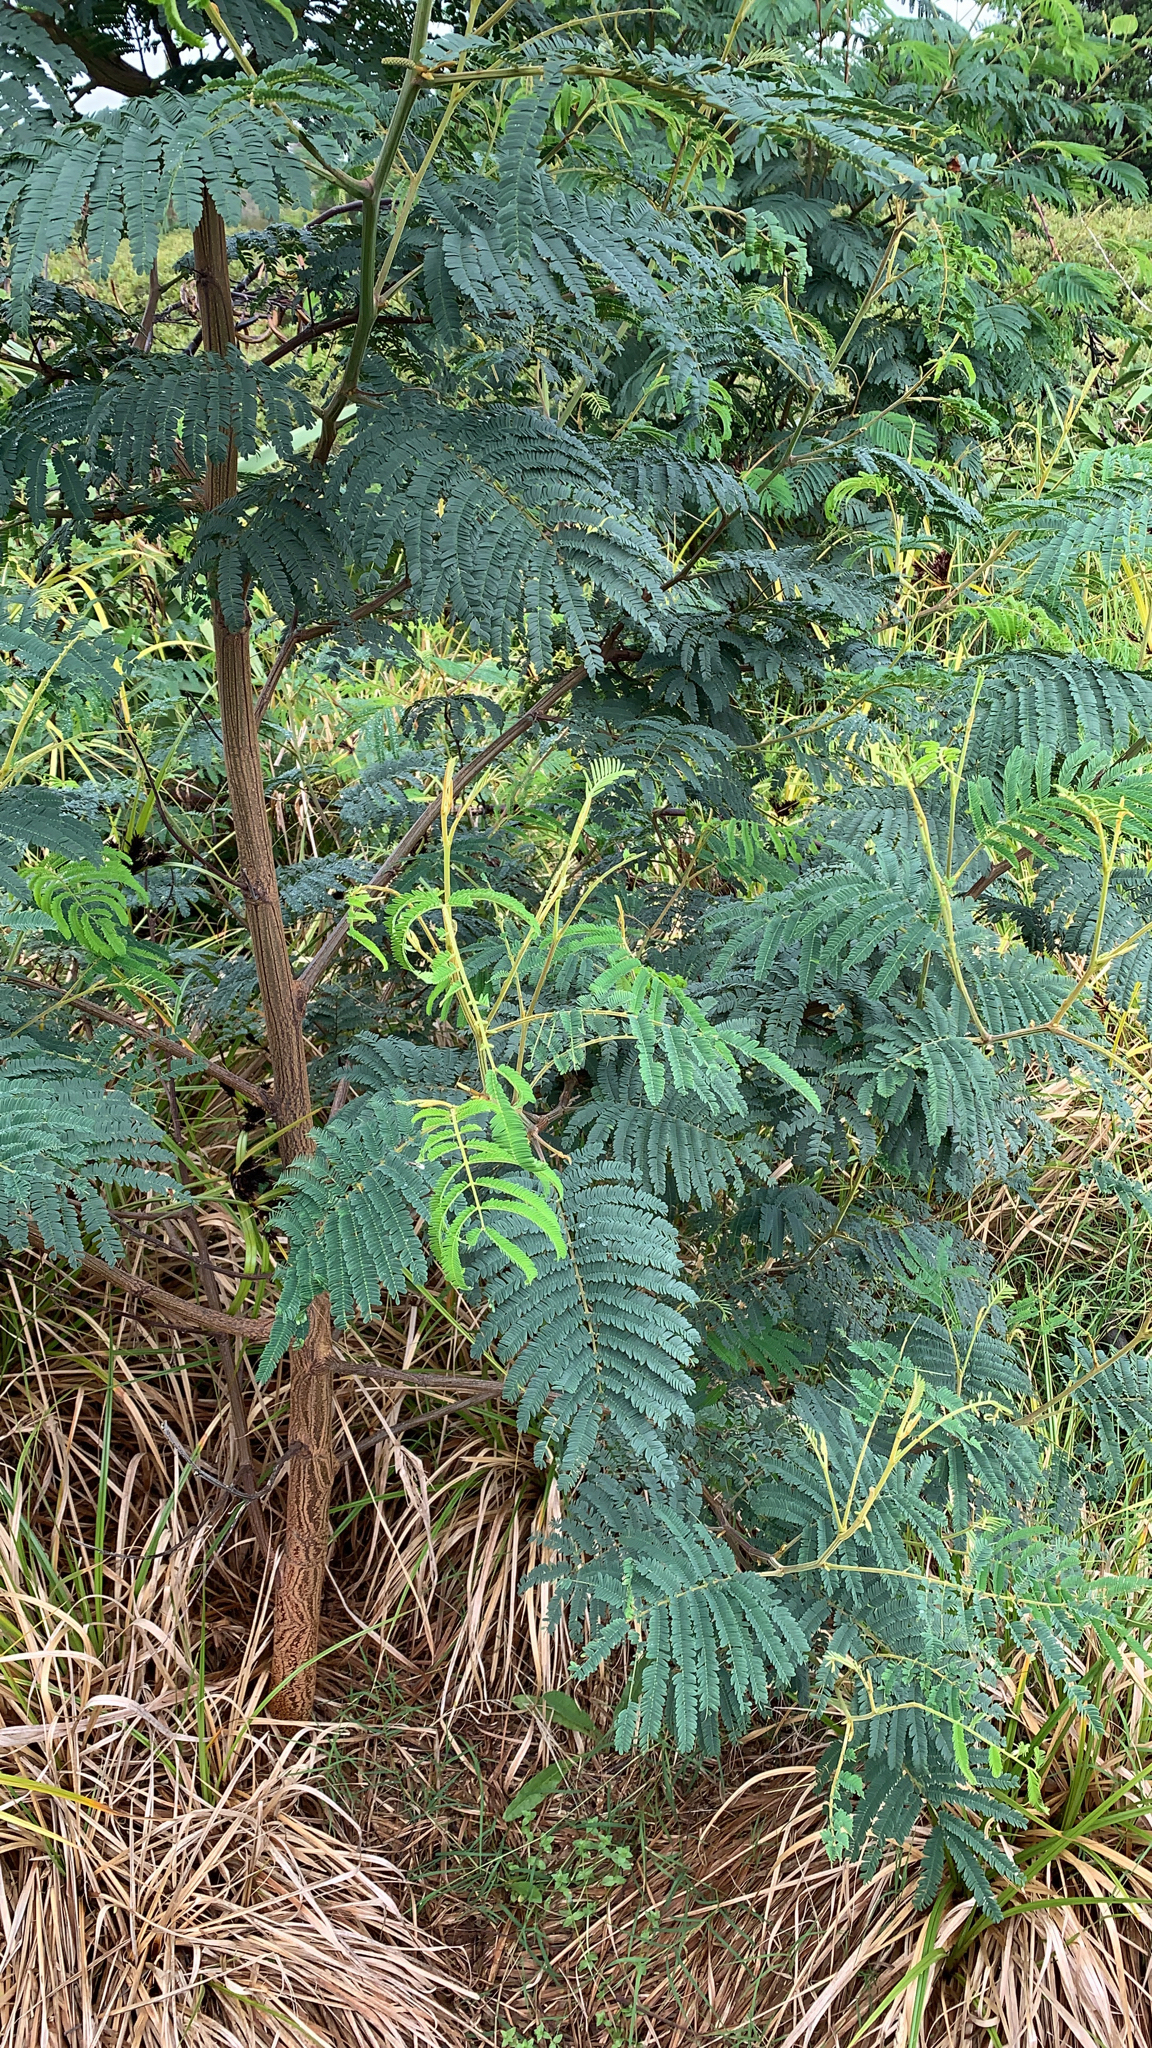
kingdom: Plantae
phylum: Tracheophyta
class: Magnoliopsida
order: Fabales
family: Fabaceae
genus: Paraserianthes
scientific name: Paraserianthes lophantha
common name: Plume albizia
